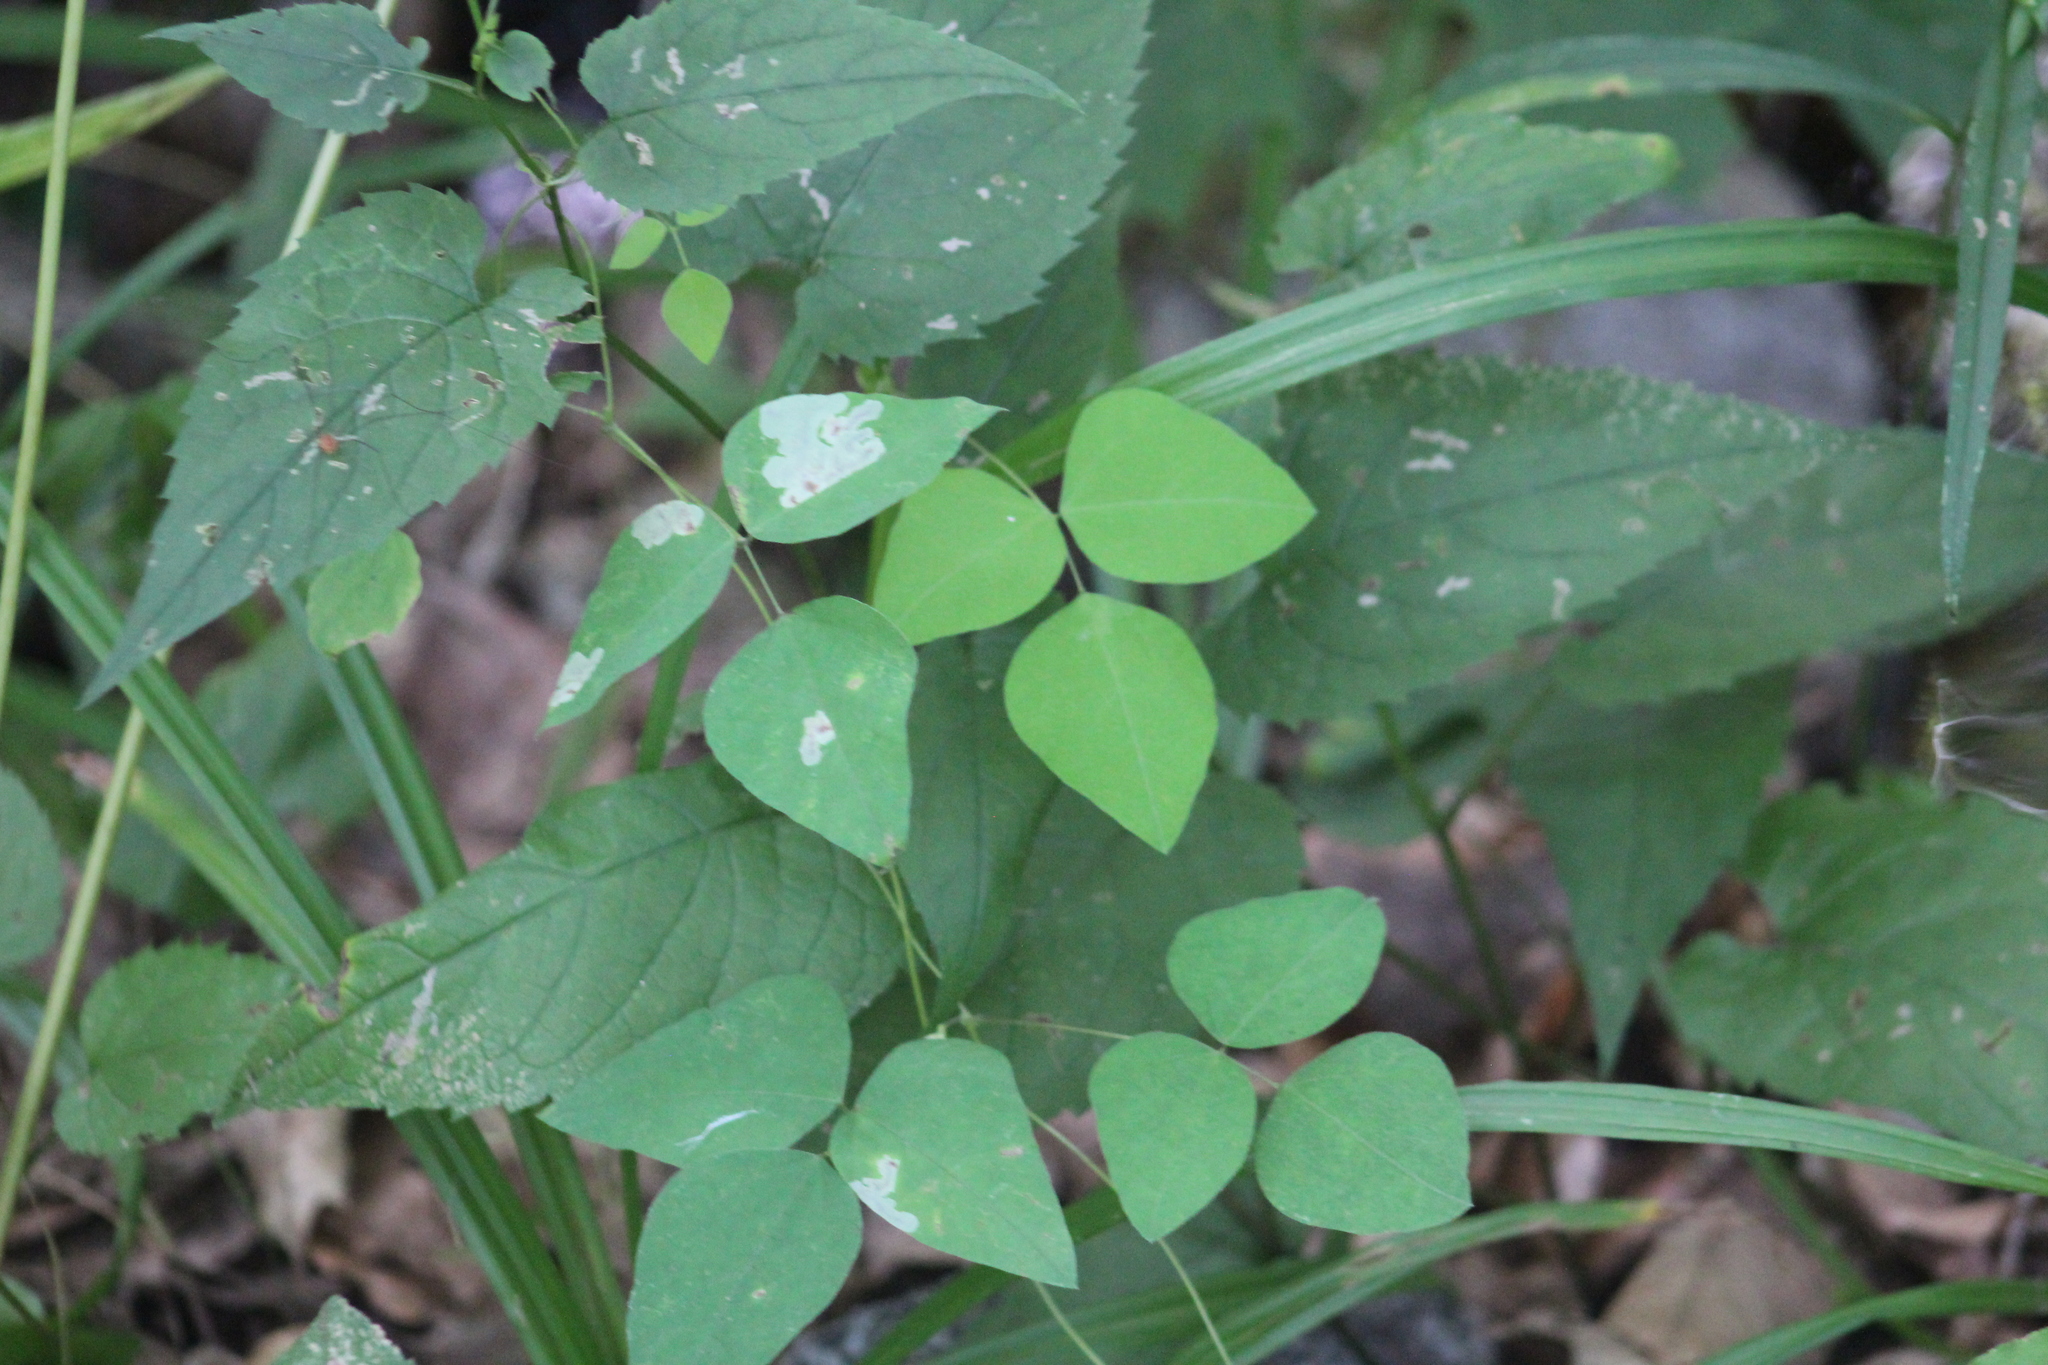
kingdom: Plantae
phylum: Tracheophyta
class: Magnoliopsida
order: Fabales
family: Fabaceae
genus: Amphicarpaea
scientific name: Amphicarpaea bracteata
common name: American hog peanut
